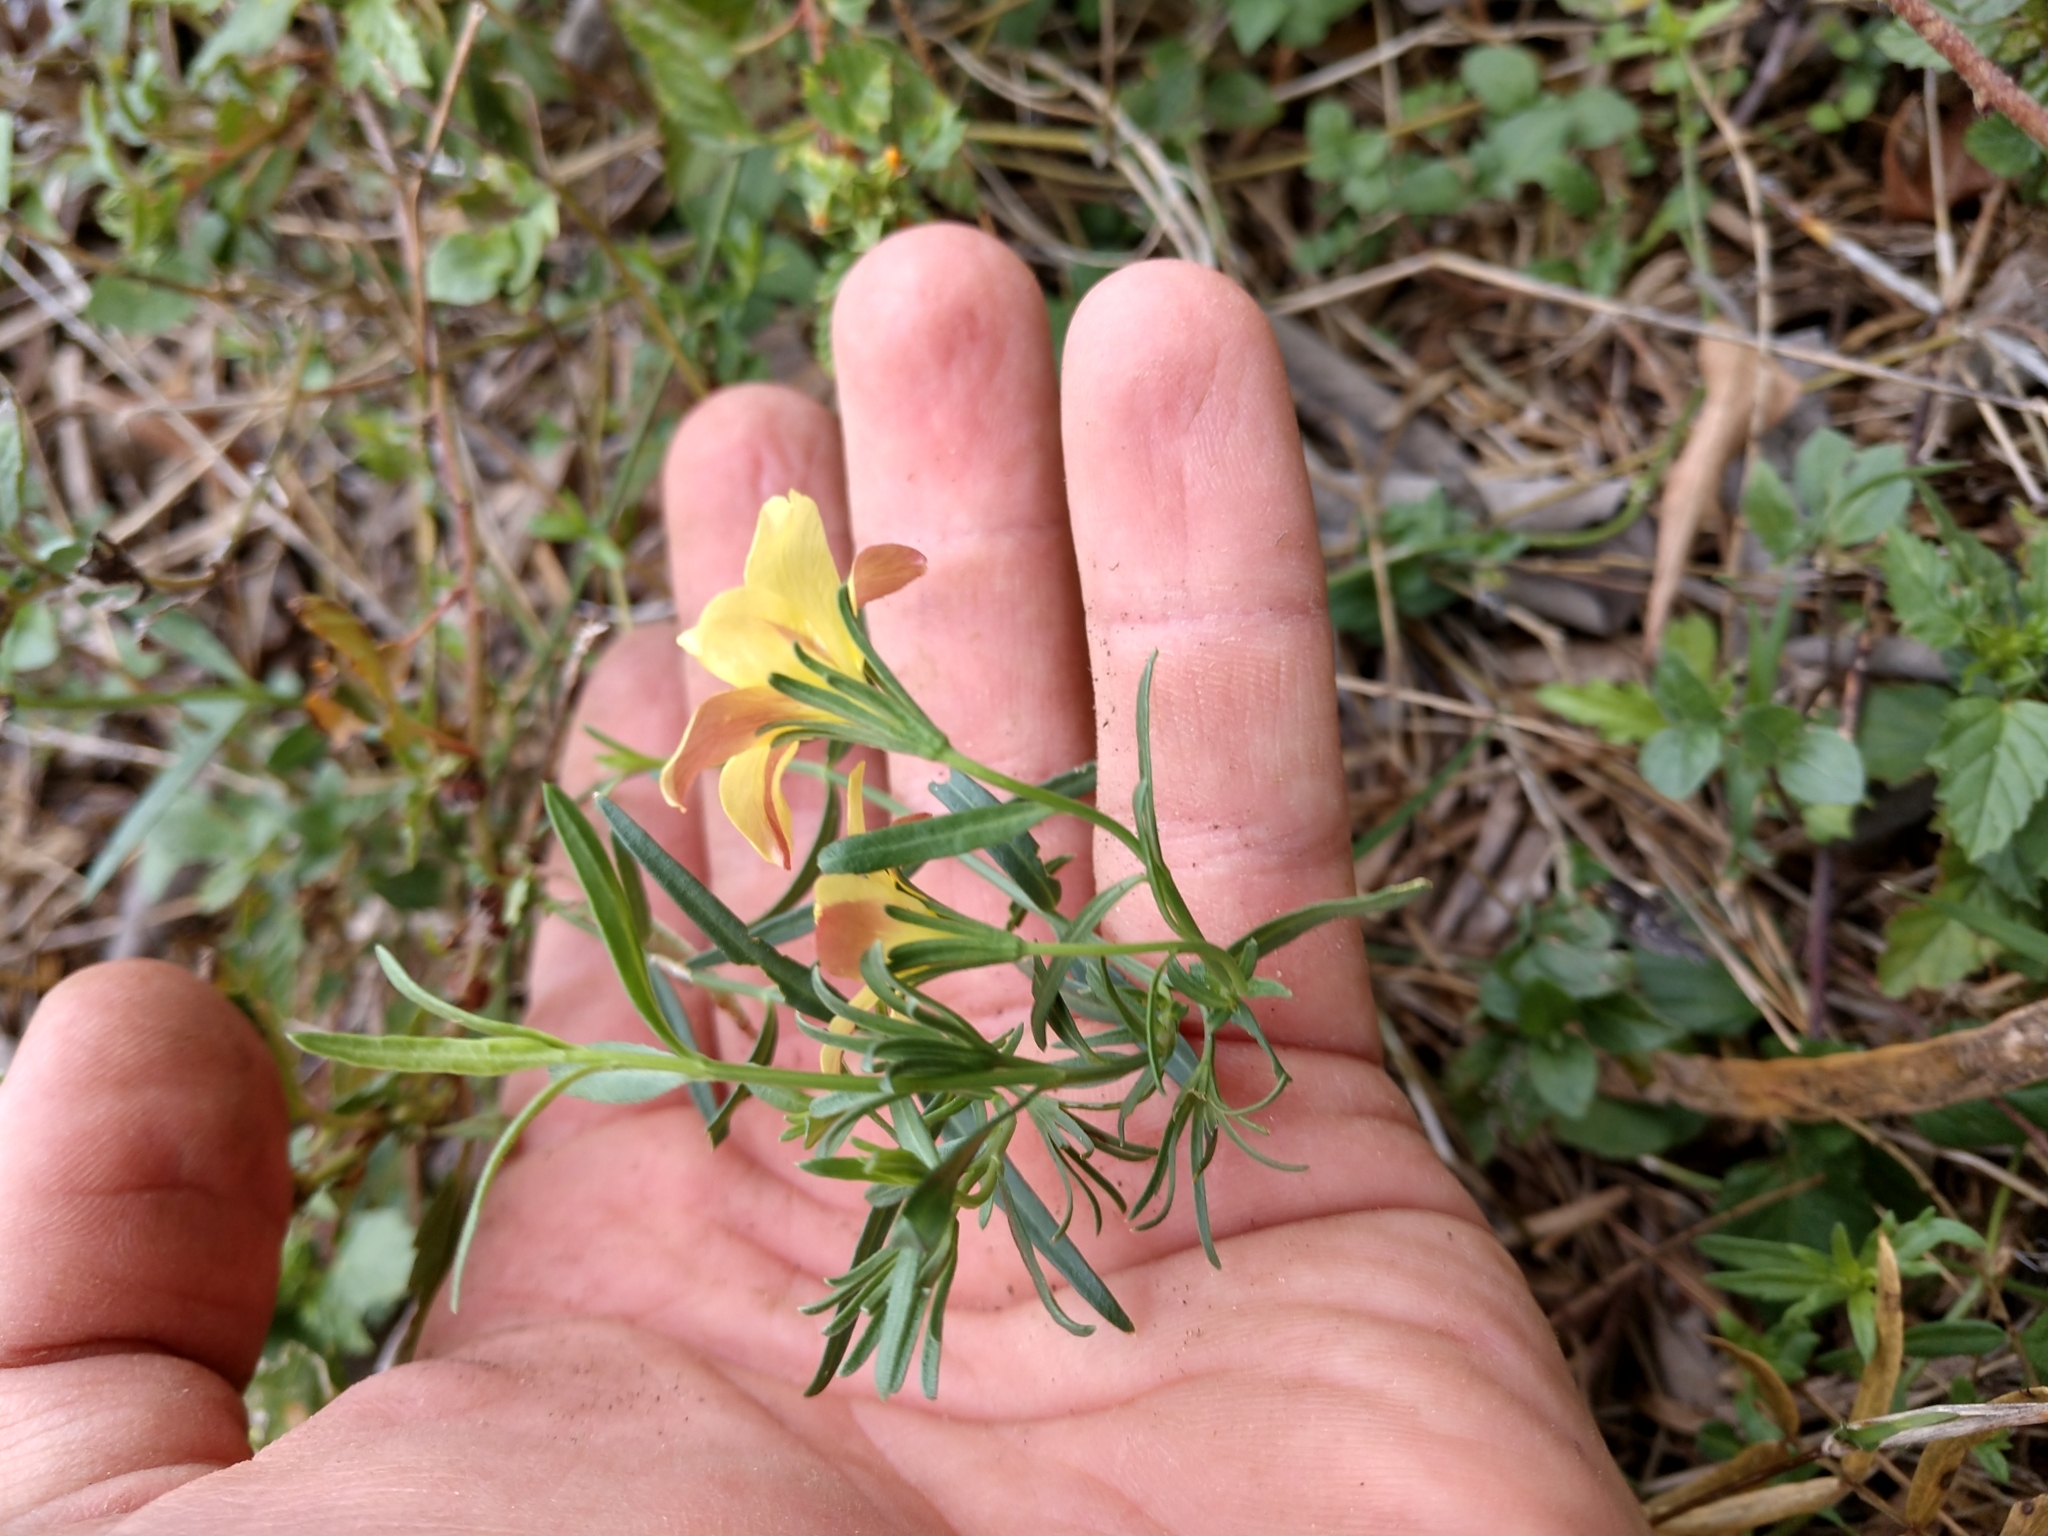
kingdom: Plantae
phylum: Tracheophyta
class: Magnoliopsida
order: Lamiales
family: Oleaceae
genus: Menodora
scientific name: Menodora heterophylla
